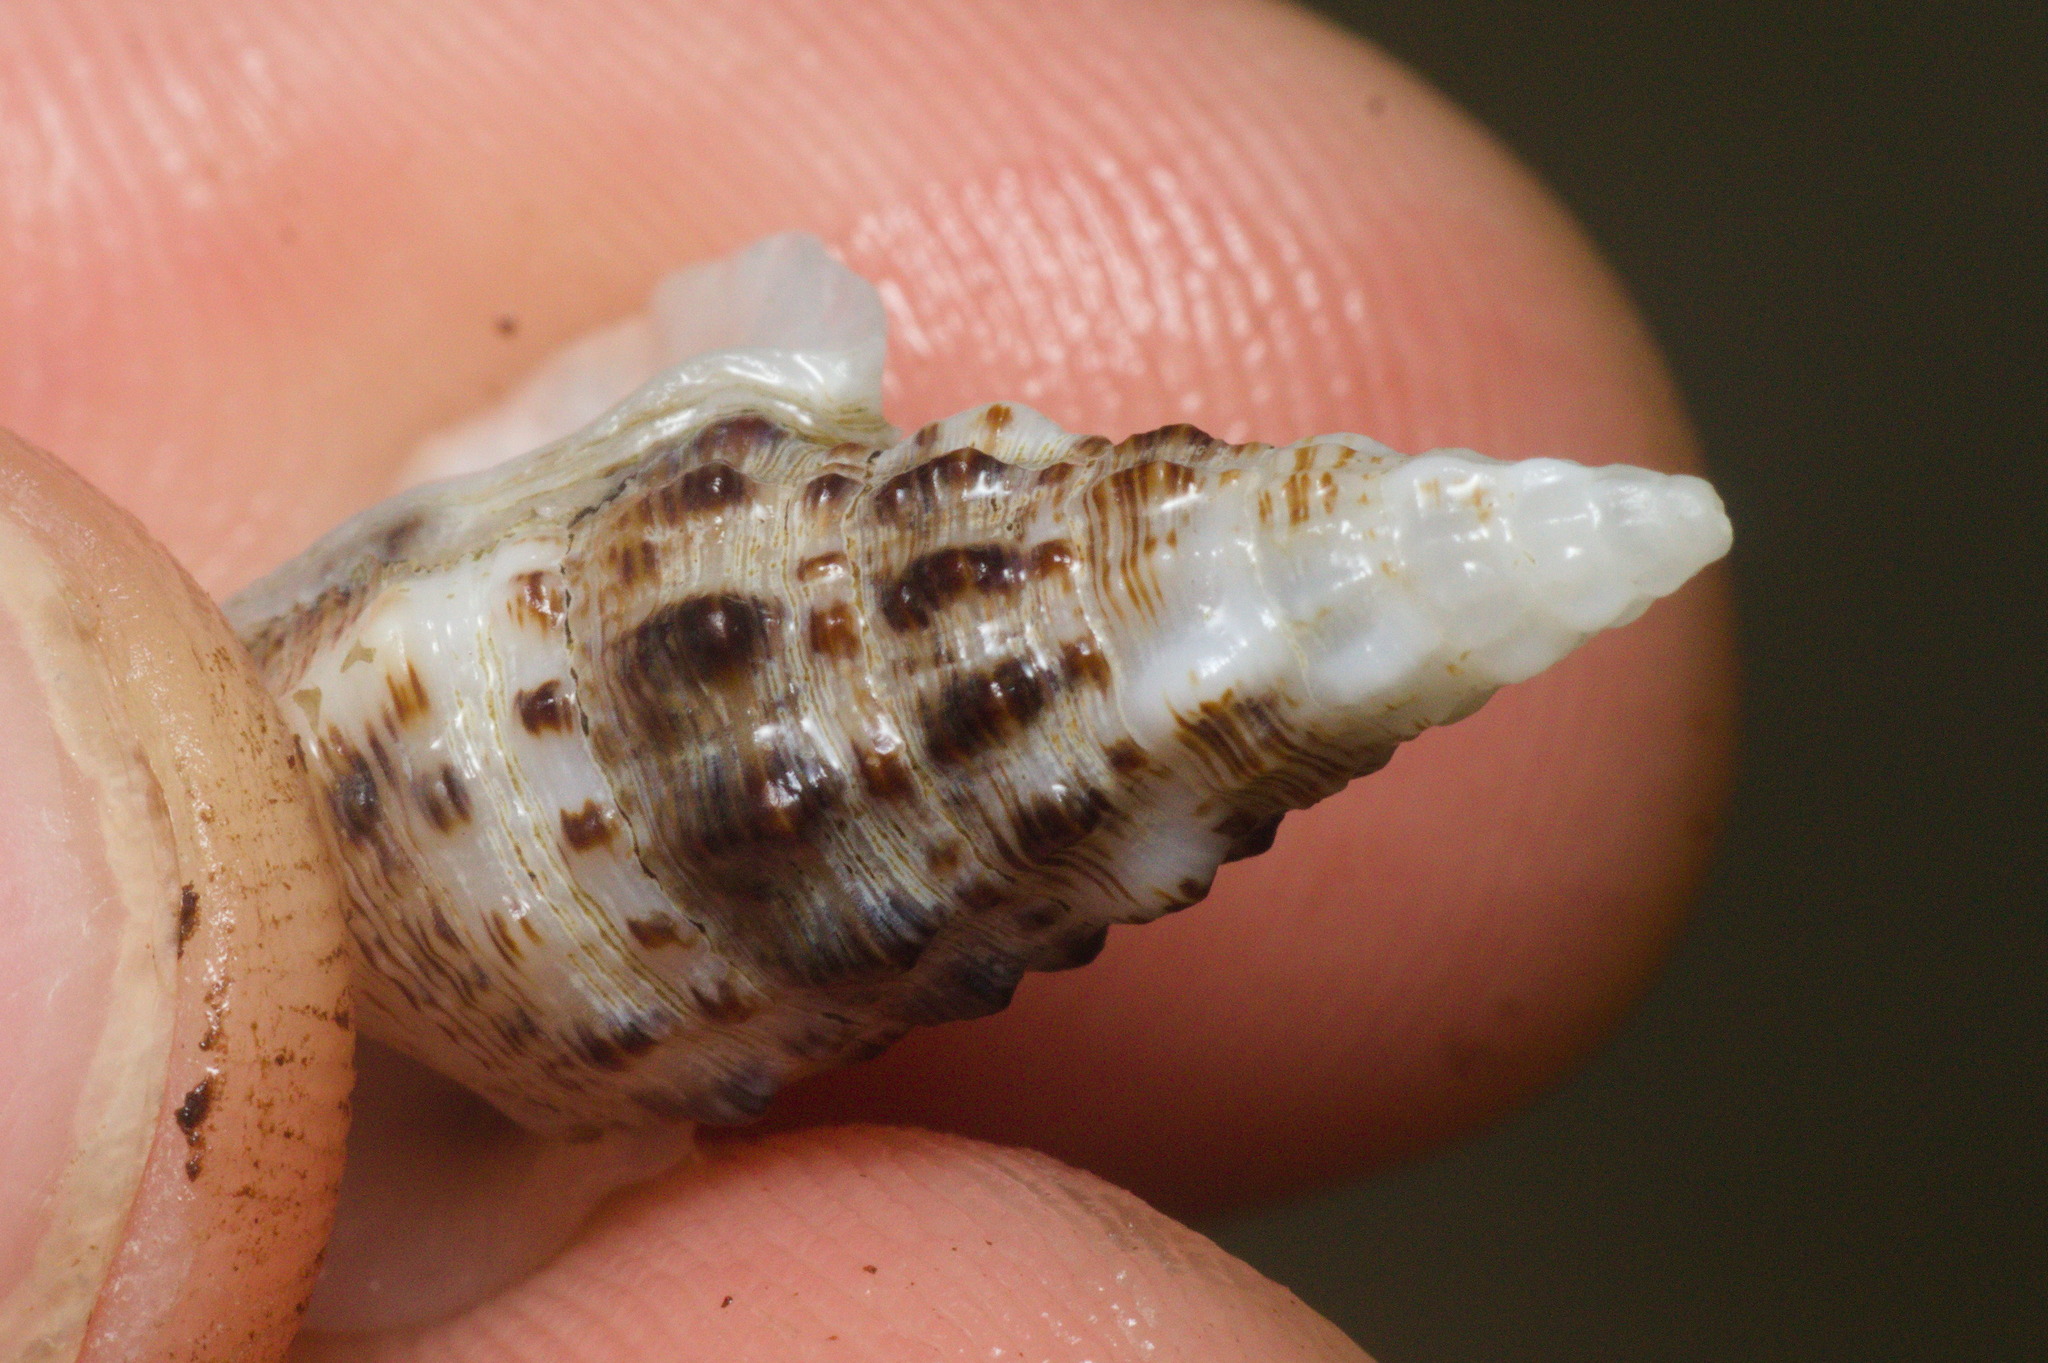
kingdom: Animalia
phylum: Mollusca
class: Gastropoda
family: Cerithiidae
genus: Cerithium
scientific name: Cerithium atratum
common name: Dark cerith
